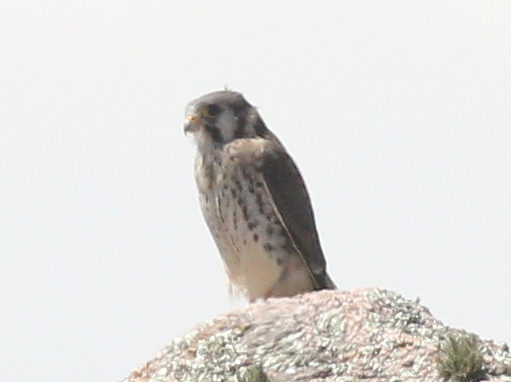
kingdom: Animalia
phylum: Chordata
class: Aves
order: Falconiformes
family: Falconidae
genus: Falco
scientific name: Falco sparverius
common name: American kestrel
